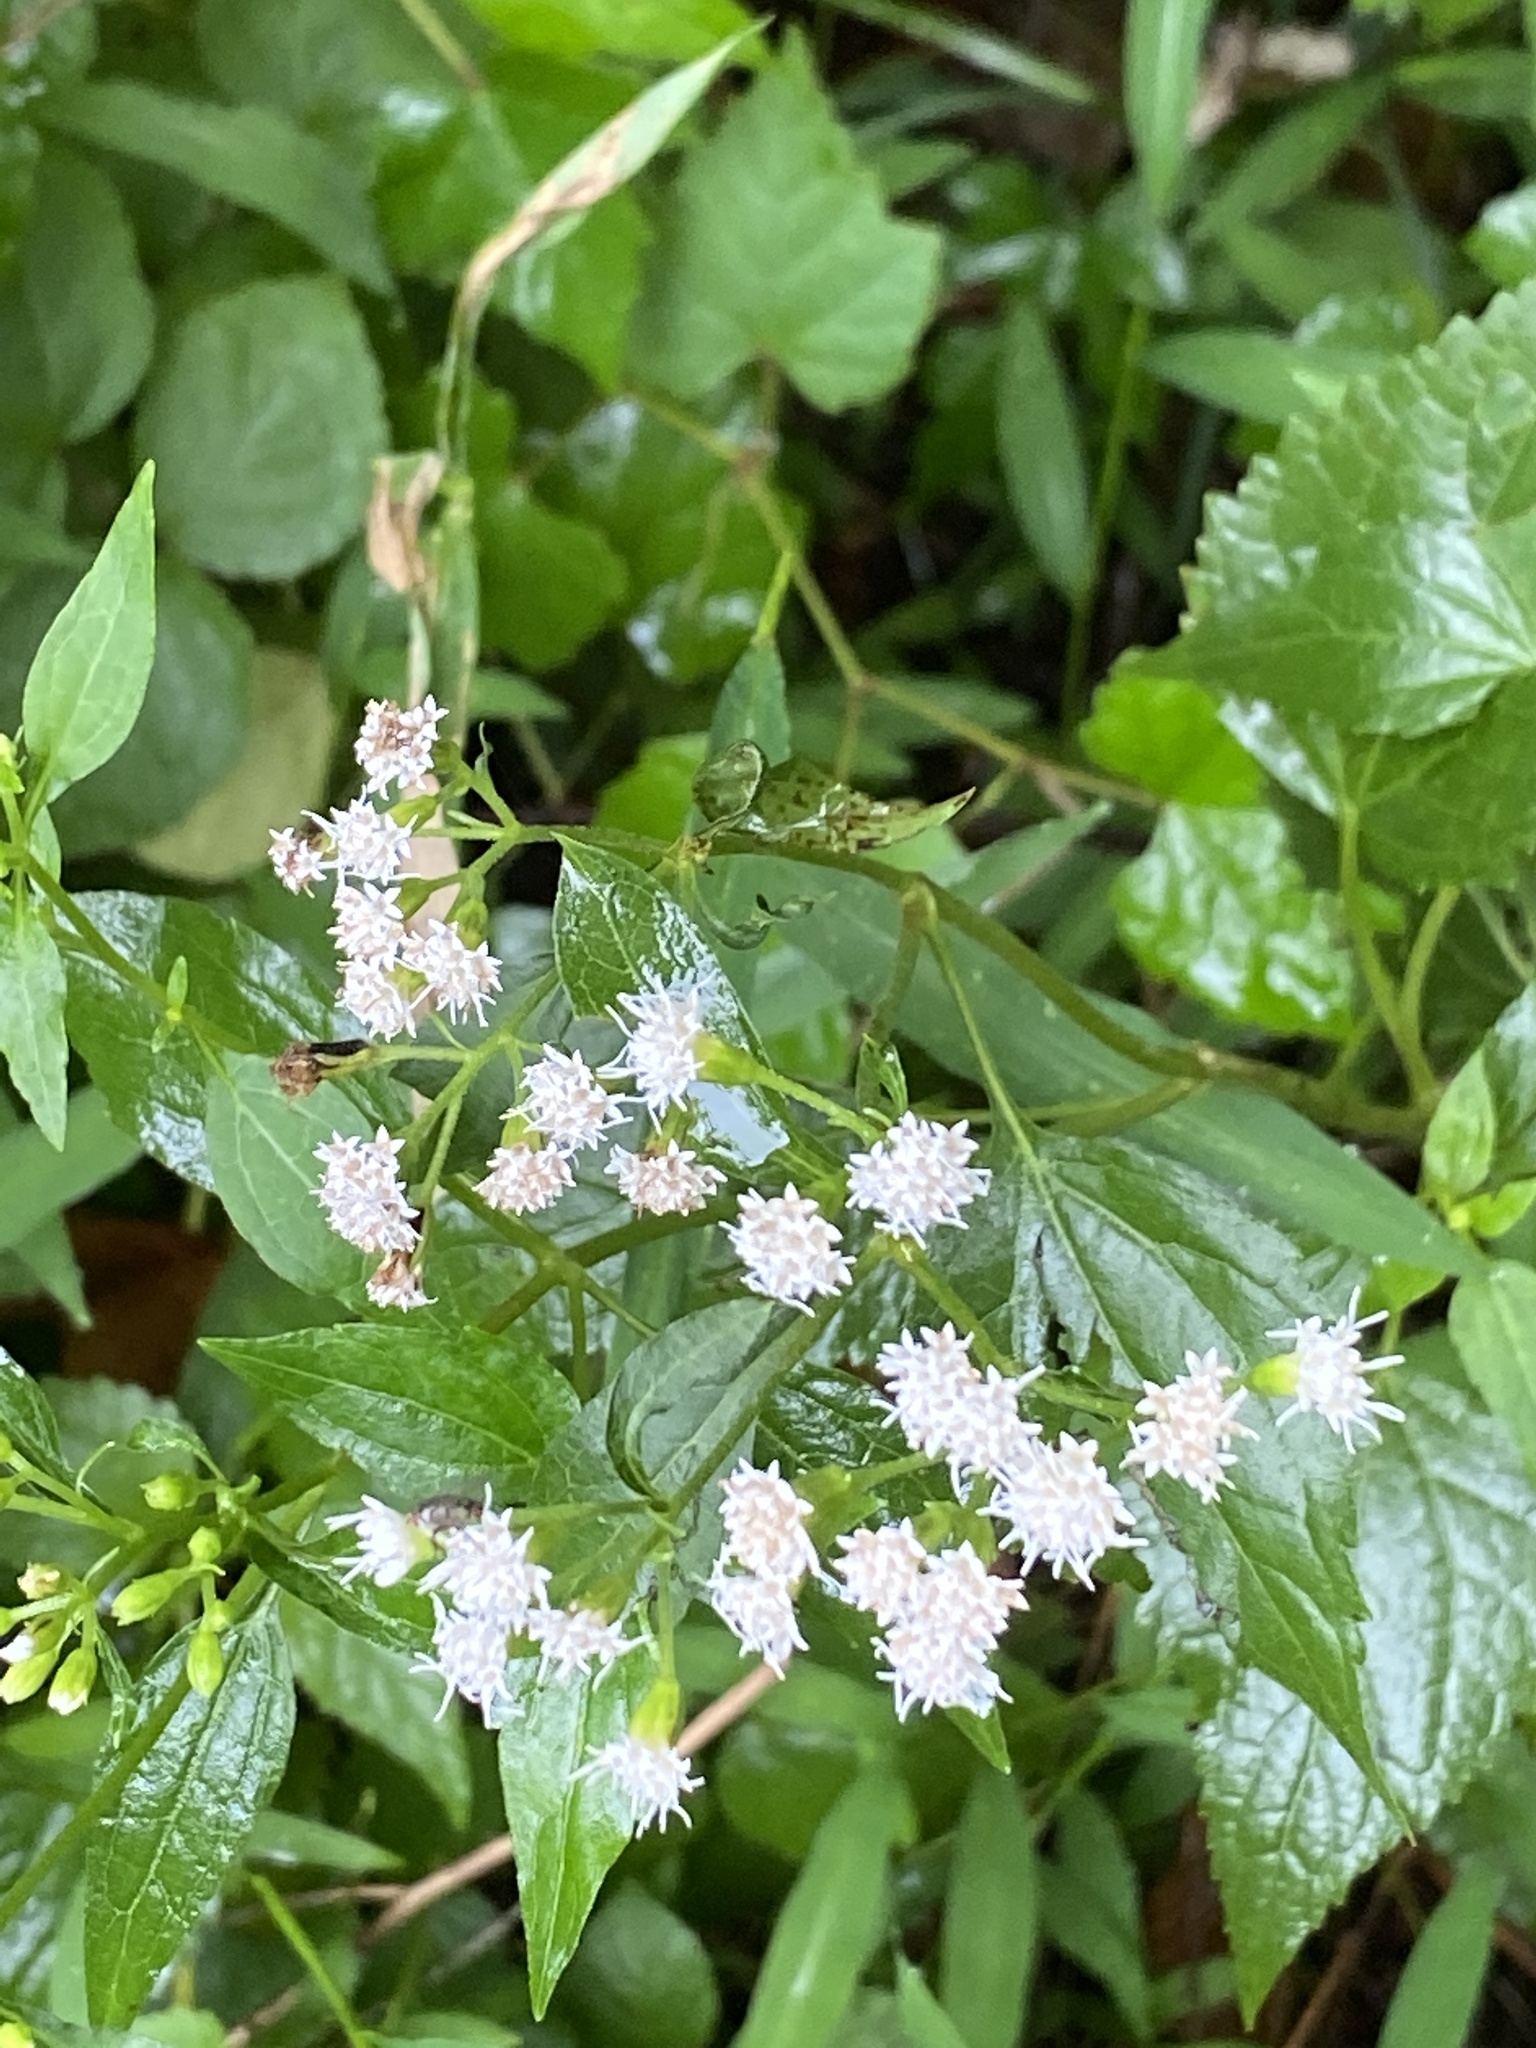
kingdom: Plantae
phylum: Tracheophyta
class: Magnoliopsida
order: Asterales
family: Asteraceae
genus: Ageratina
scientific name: Ageratina altissima
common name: White snakeroot
